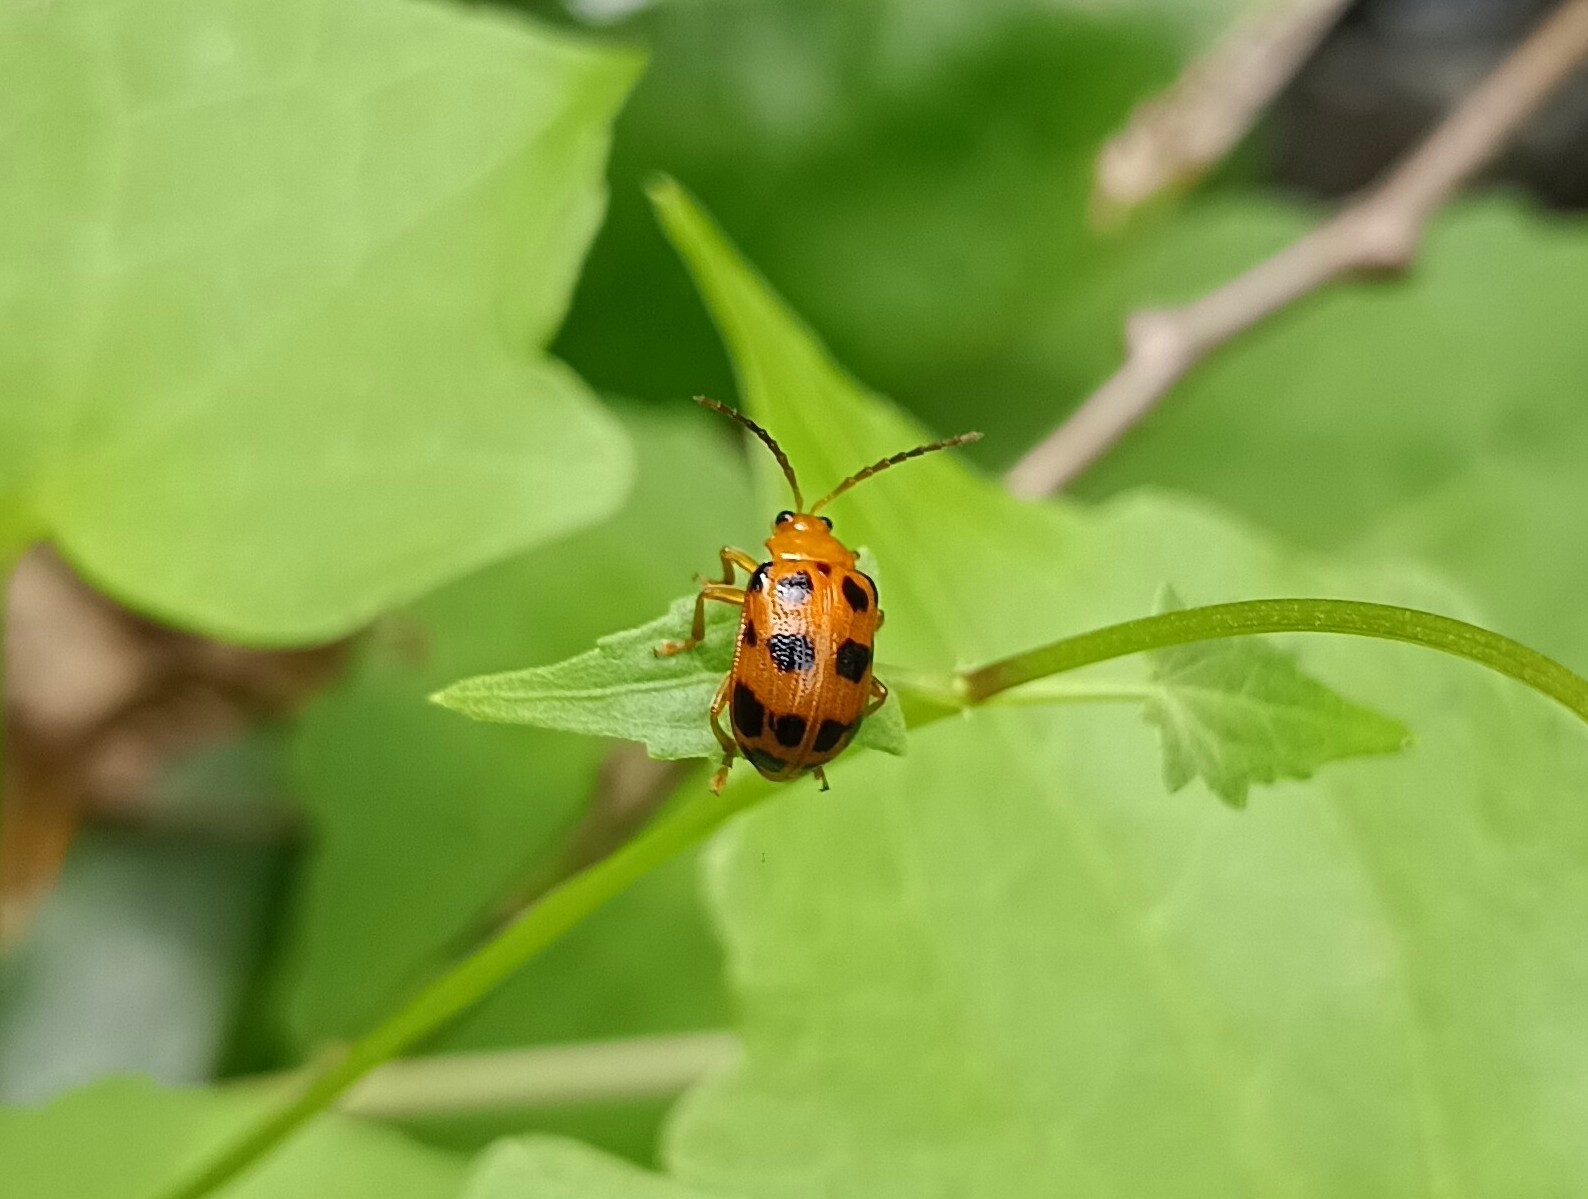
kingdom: Animalia
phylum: Arthropoda
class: Insecta
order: Coleoptera
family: Chrysomelidae
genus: Sphenoraia
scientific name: Sphenoraia
